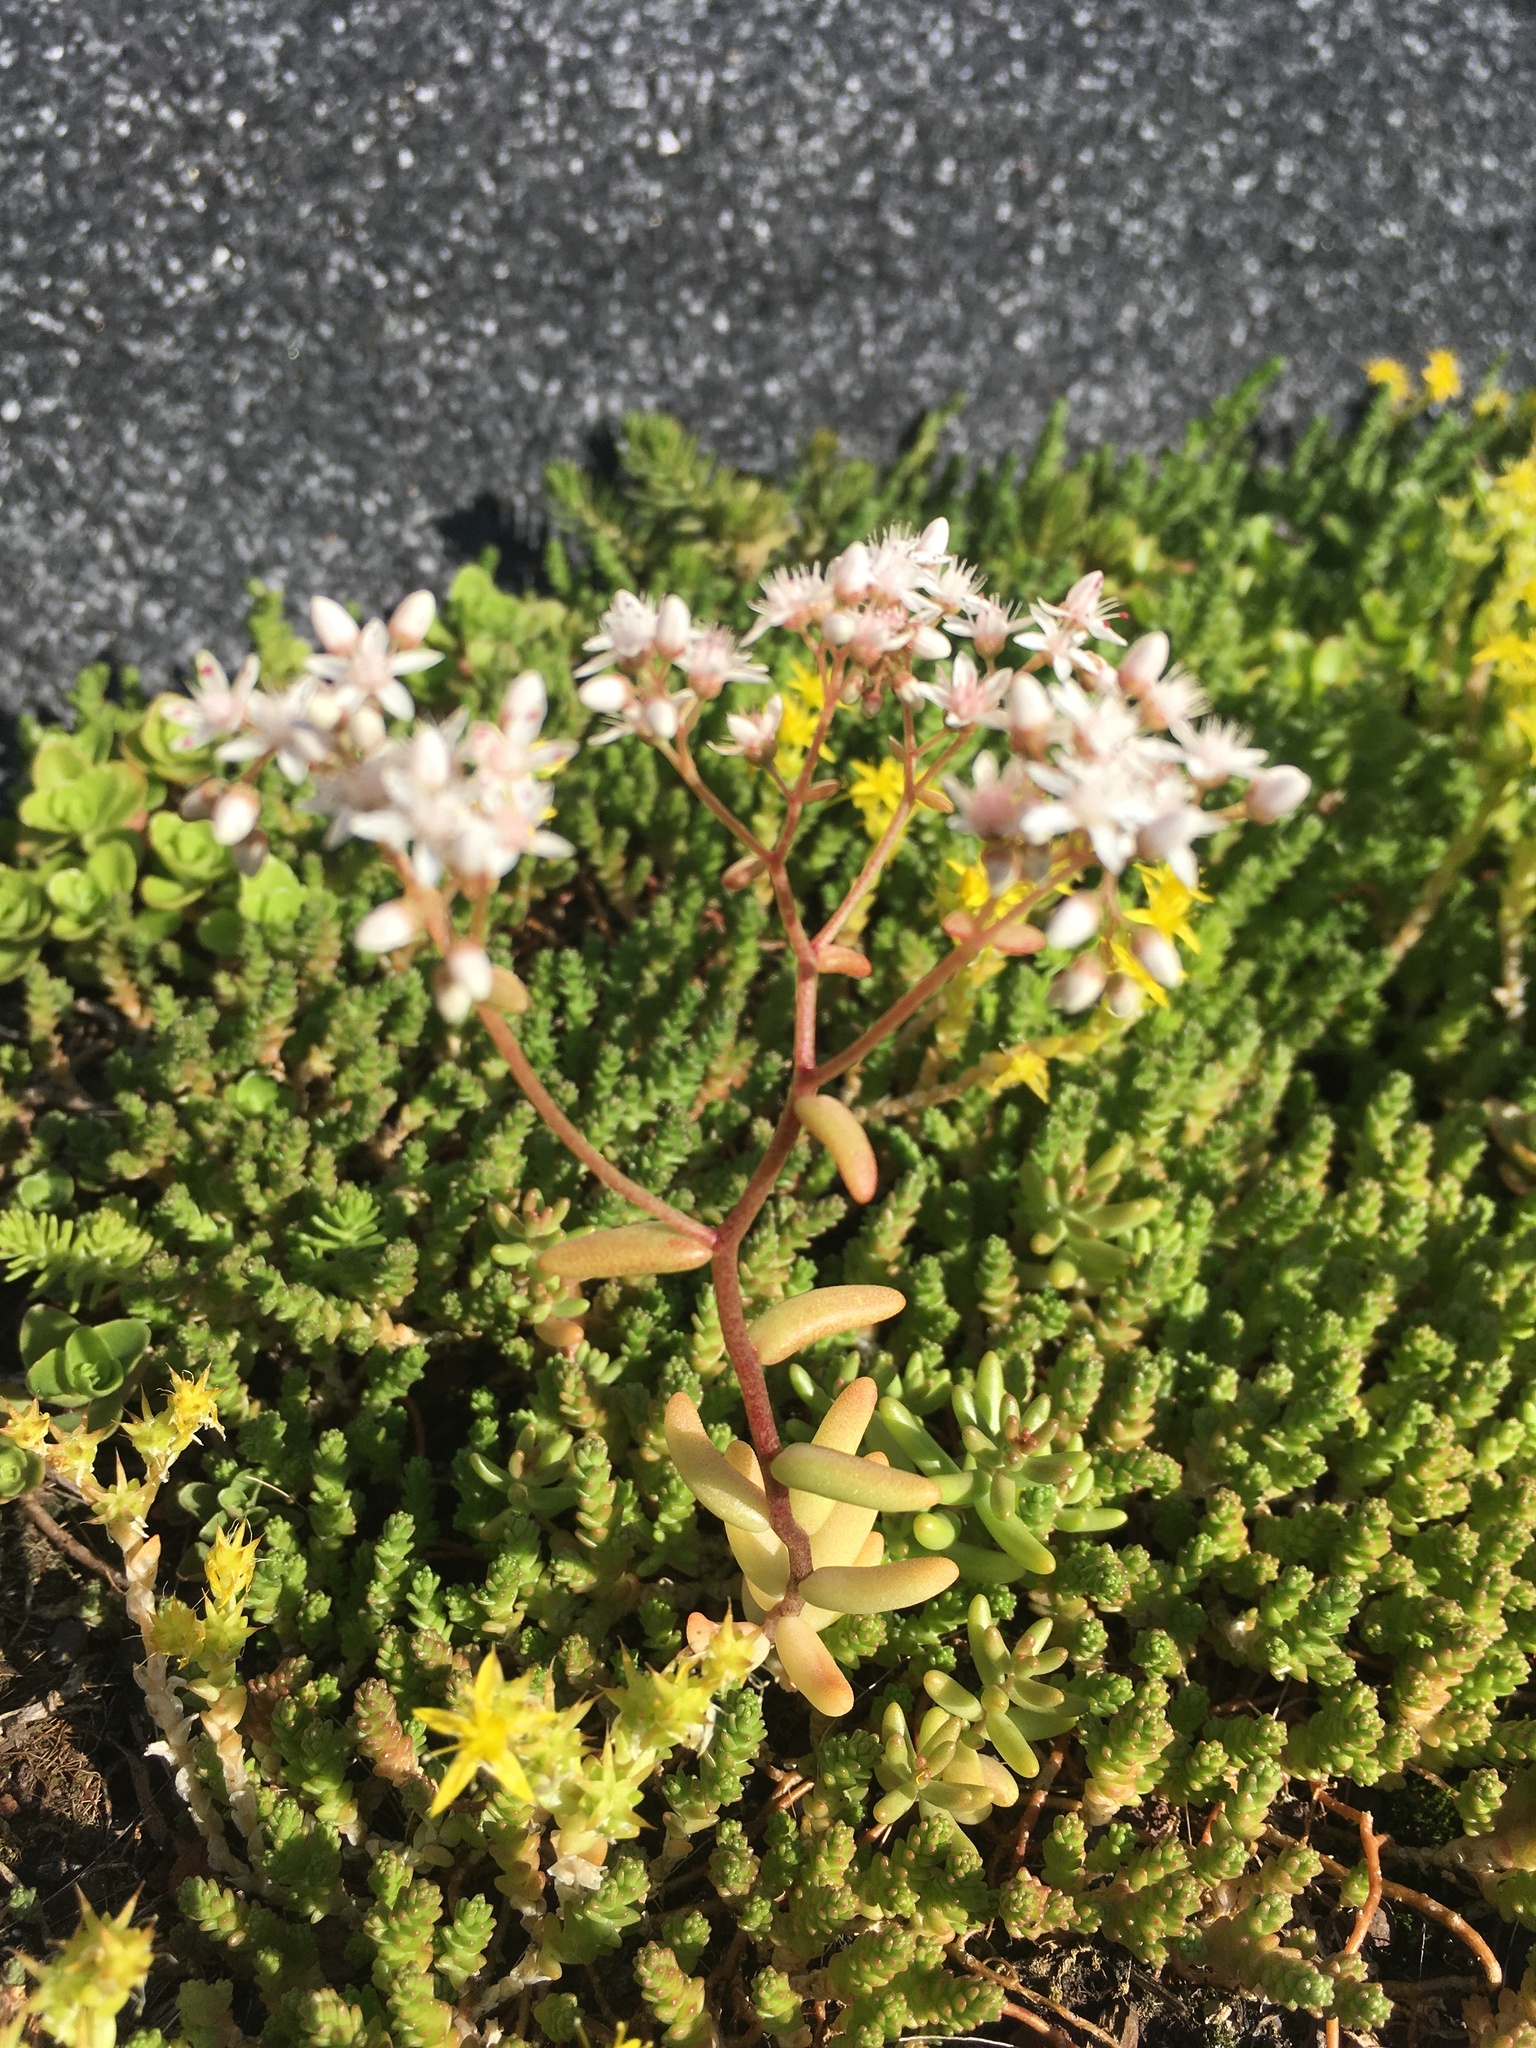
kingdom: Plantae
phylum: Tracheophyta
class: Magnoliopsida
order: Saxifragales
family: Crassulaceae
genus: Sedum
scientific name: Sedum album
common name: White stonecrop
